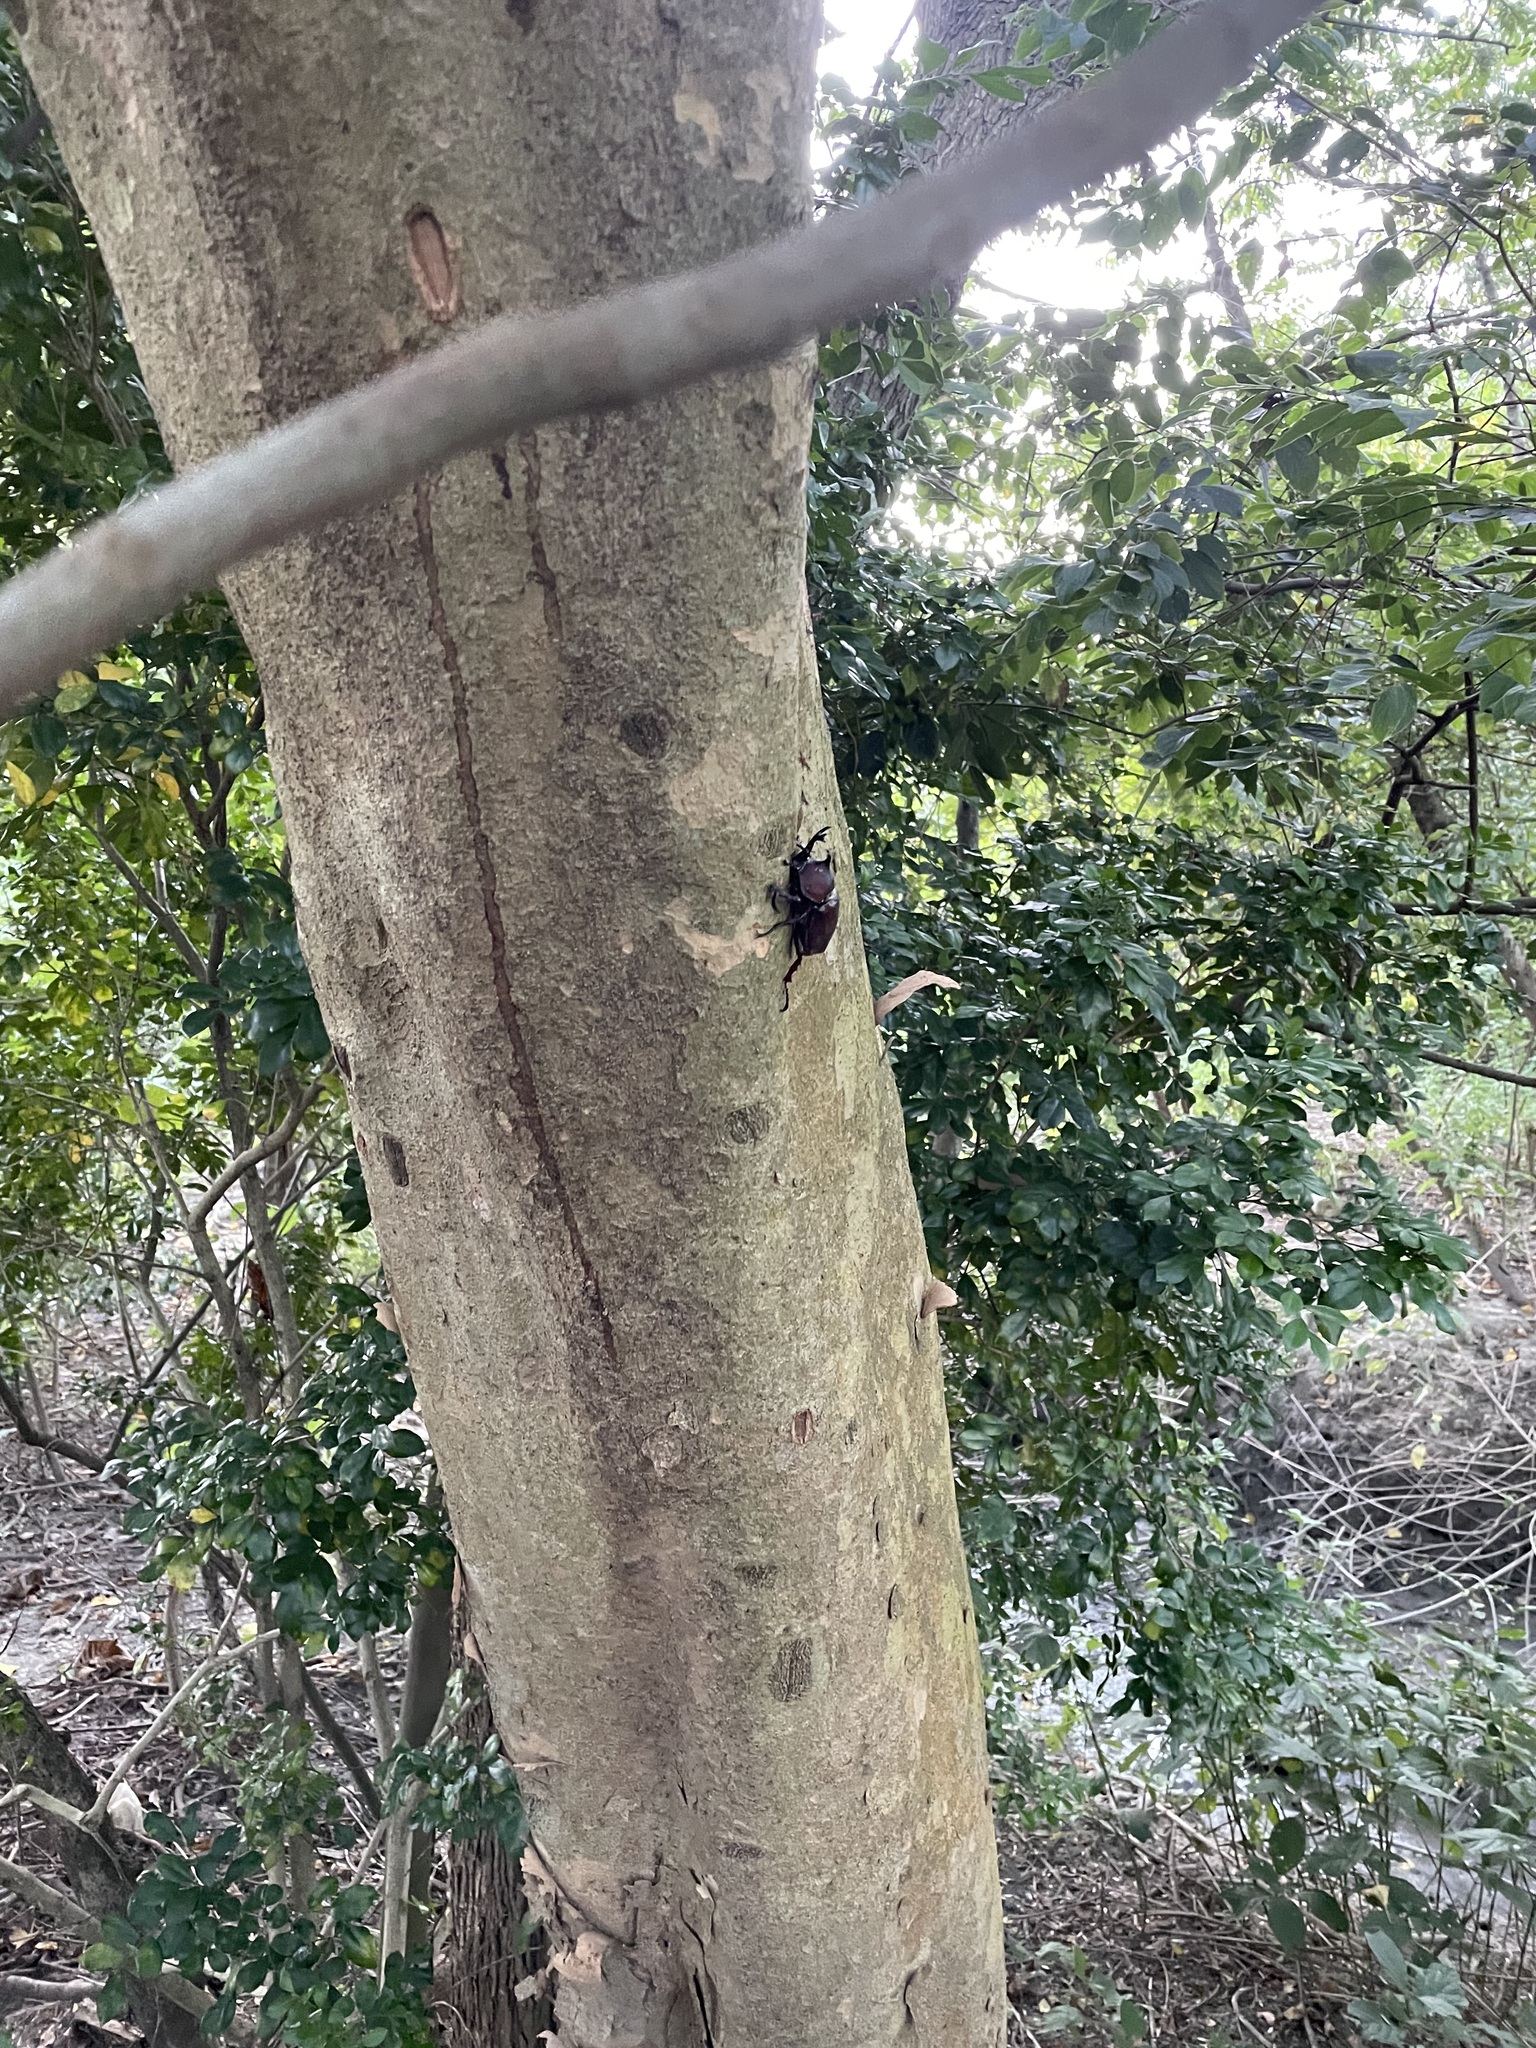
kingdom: Animalia
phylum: Arthropoda
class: Insecta
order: Coleoptera
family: Scarabaeidae
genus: Trypoxylus
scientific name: Trypoxylus dichotomus
